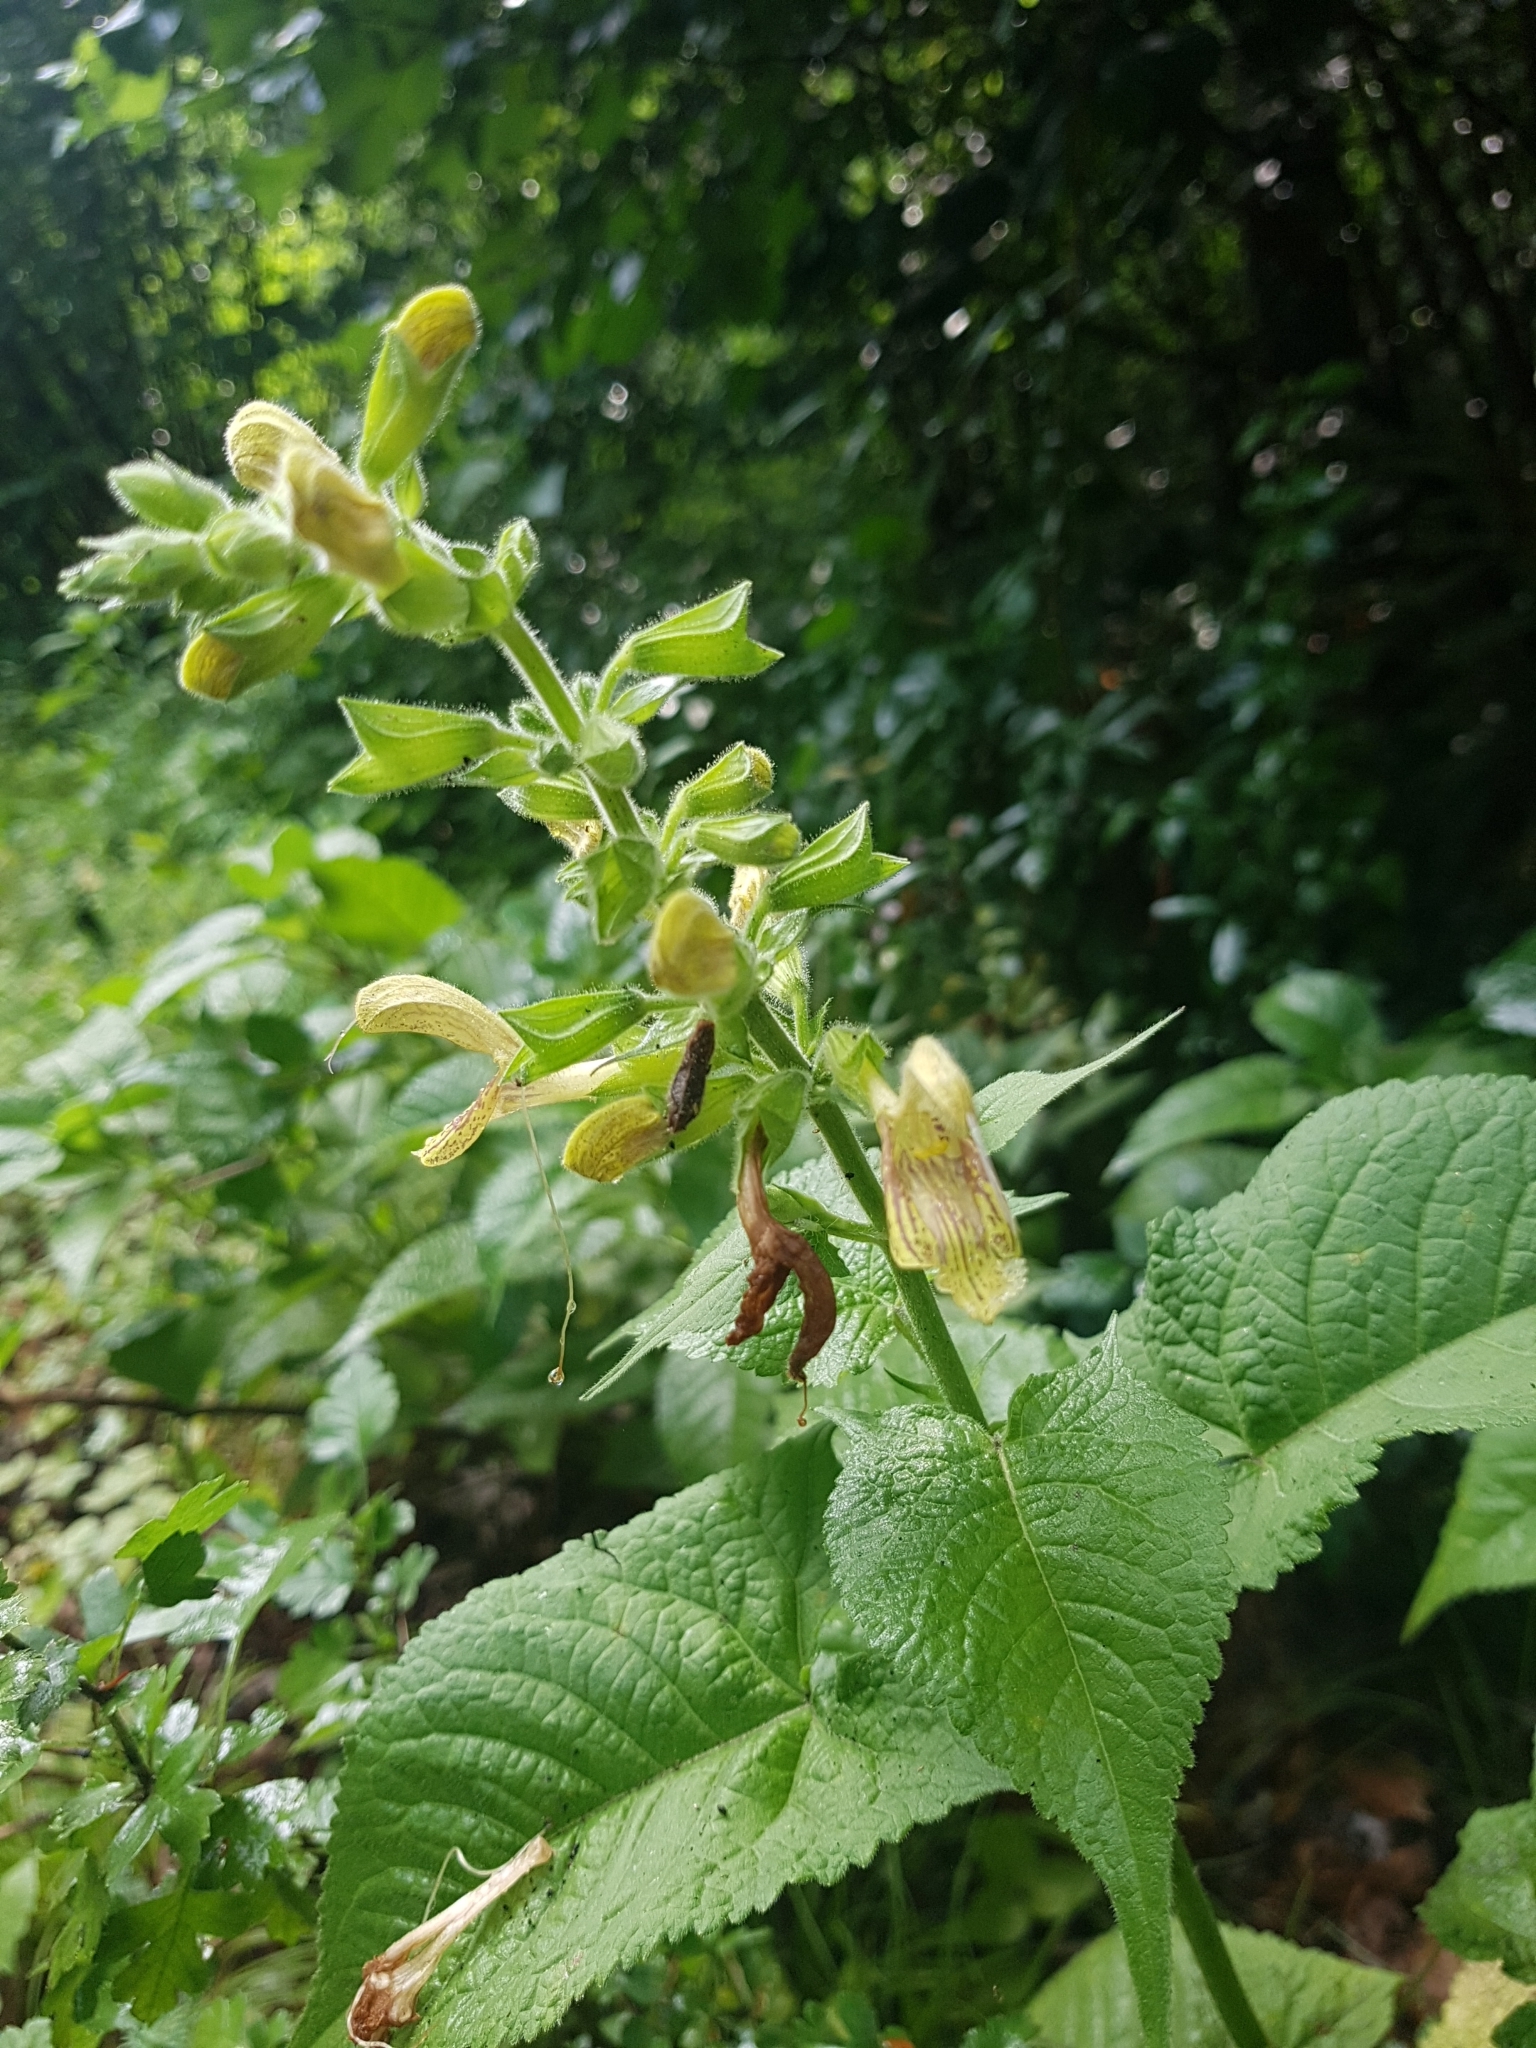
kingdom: Plantae
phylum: Tracheophyta
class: Magnoliopsida
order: Lamiales
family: Lamiaceae
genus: Salvia
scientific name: Salvia glutinosa
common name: Sticky clary
